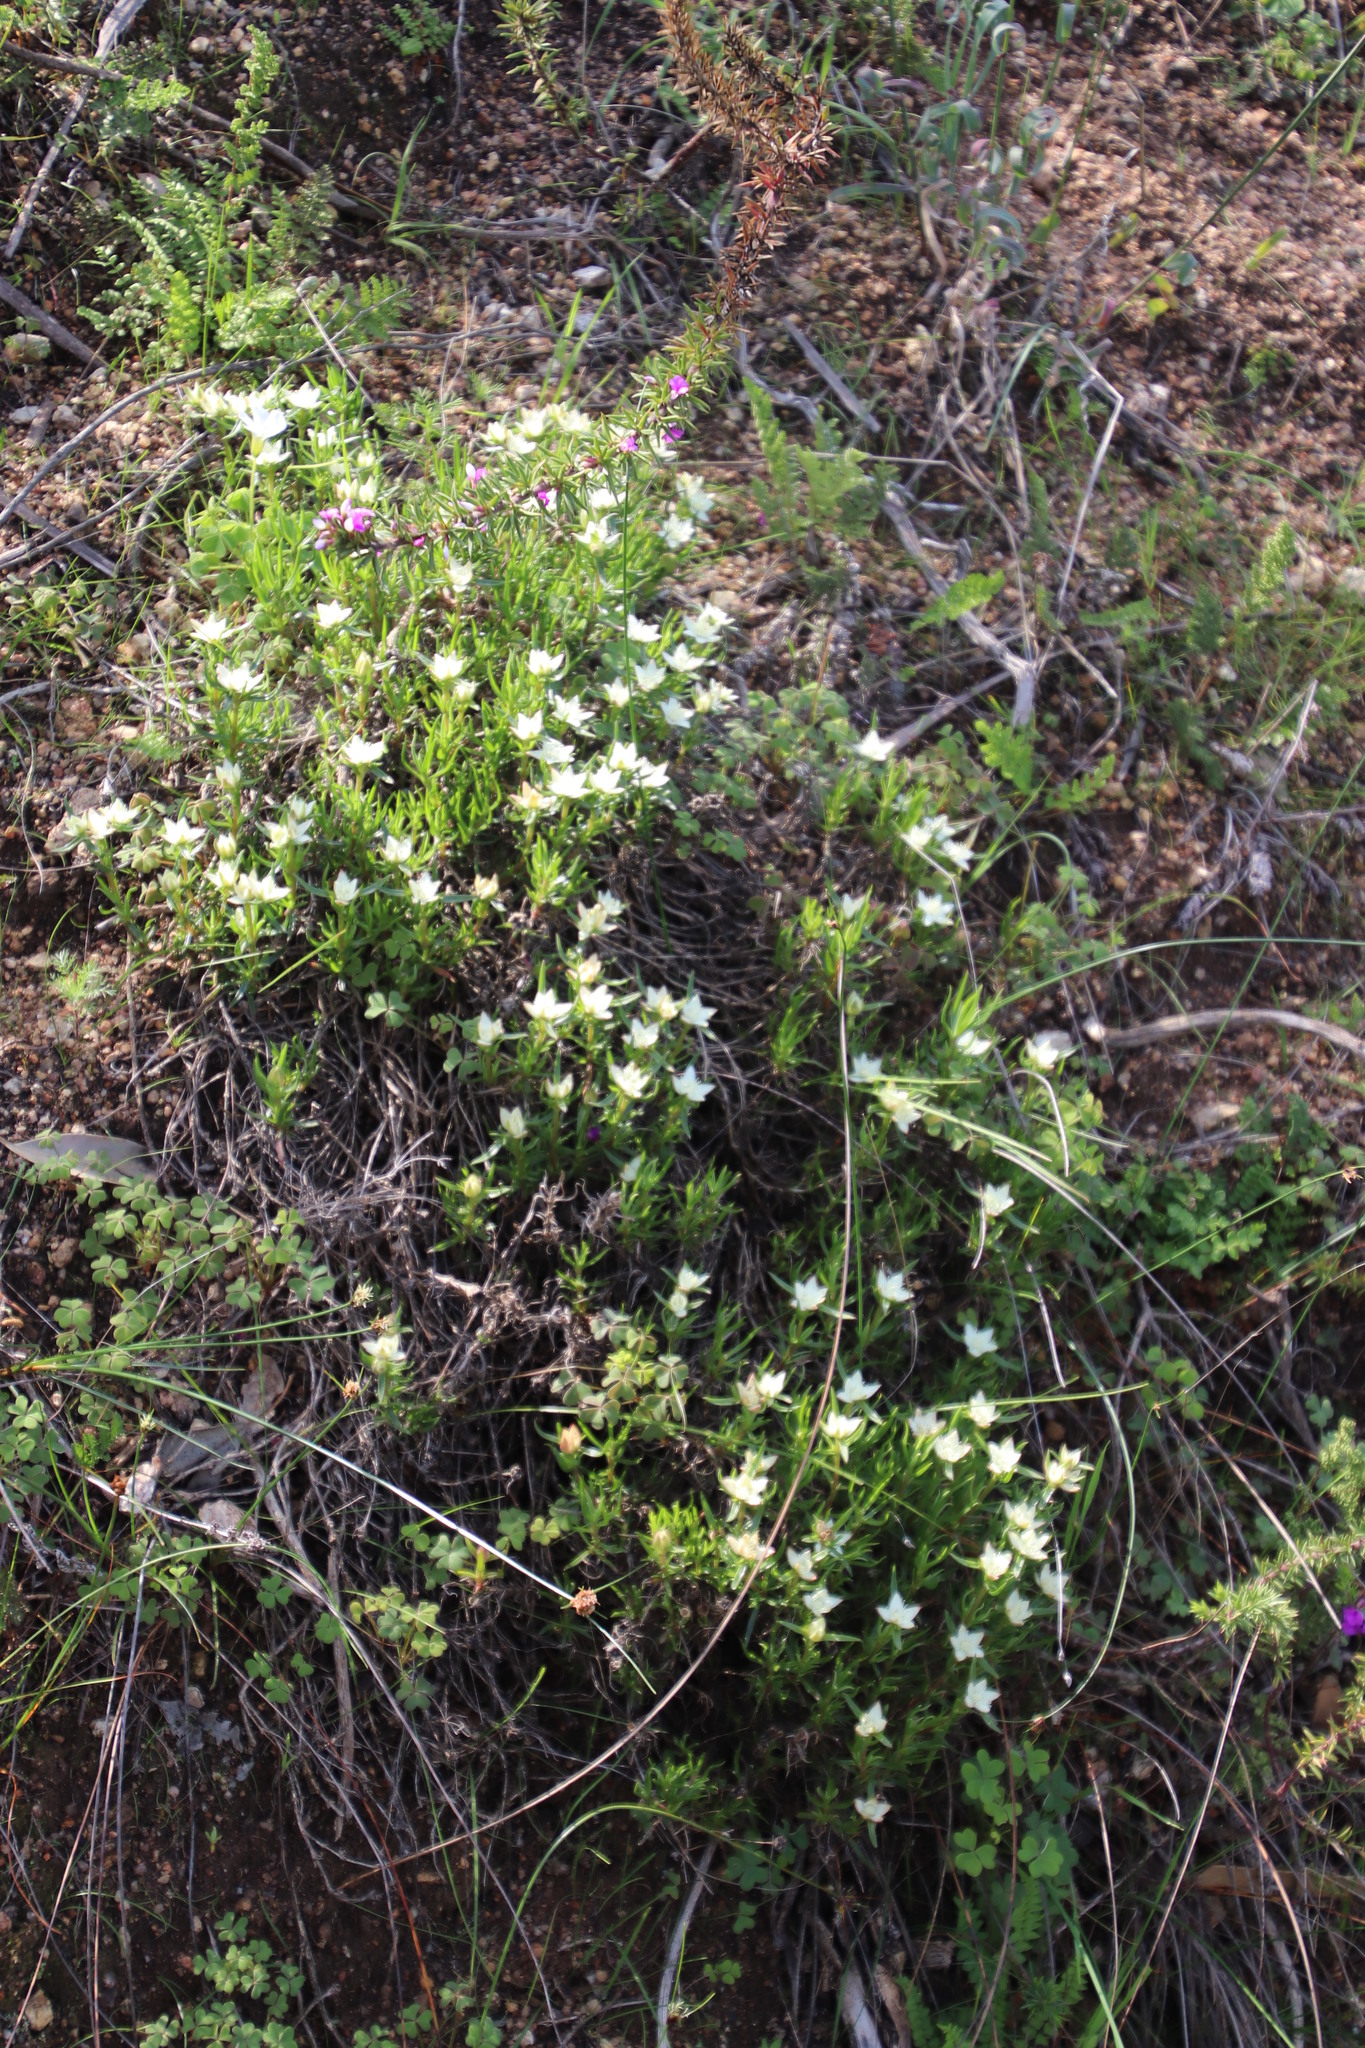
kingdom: Plantae
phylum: Tracheophyta
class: Magnoliopsida
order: Caryophyllales
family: Aizoaceae
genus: Aizoon
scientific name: Aizoon sarmentosum
